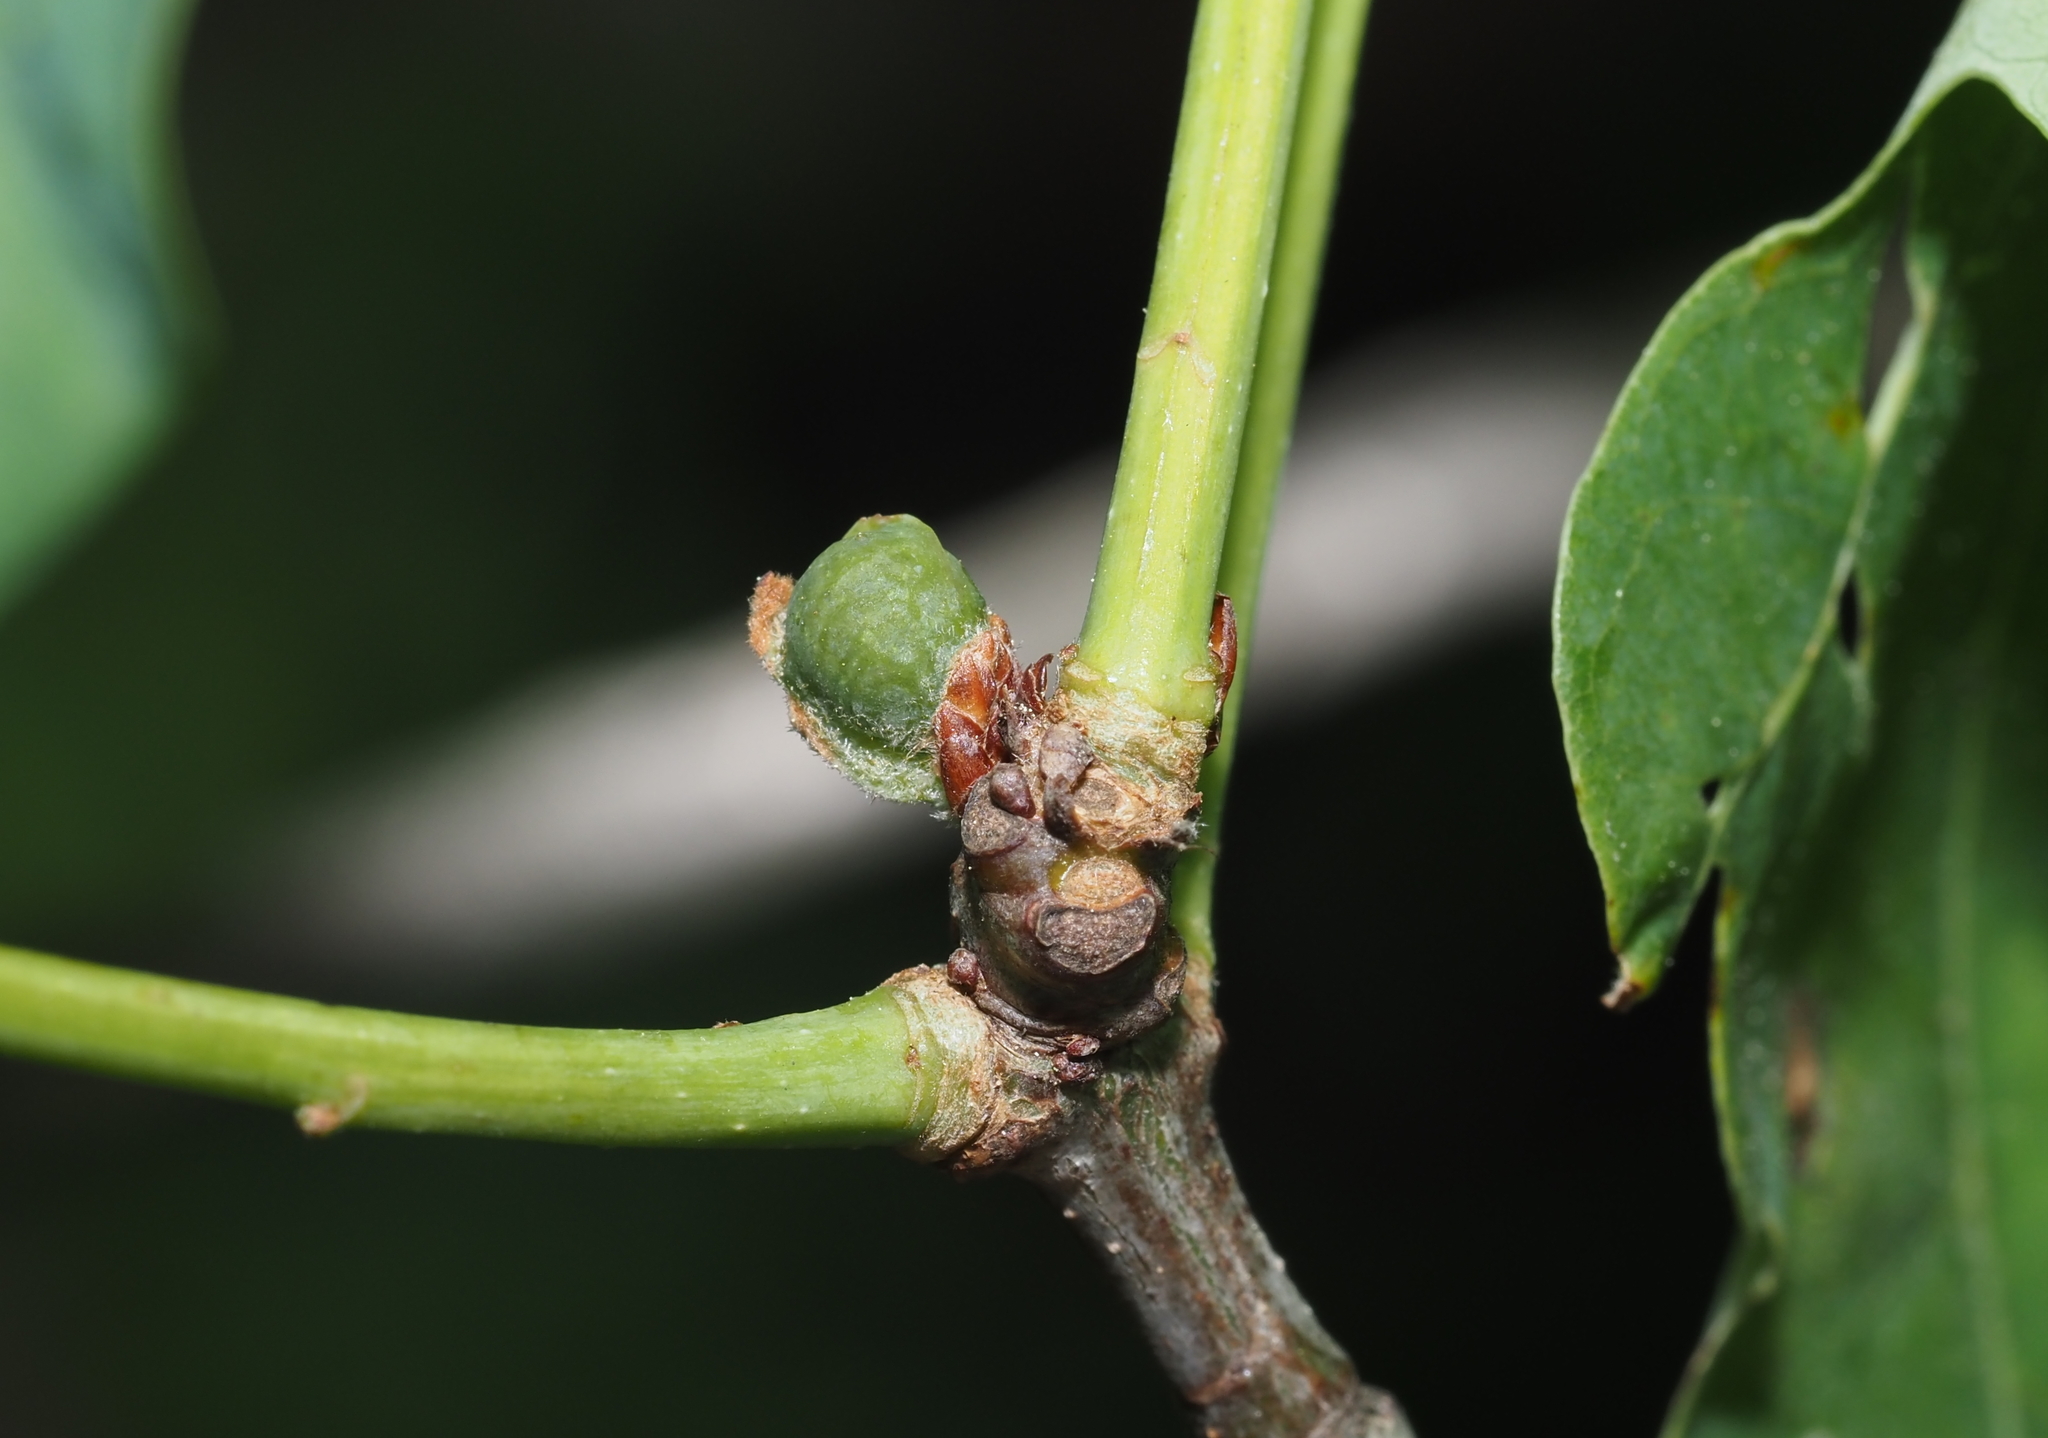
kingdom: Animalia
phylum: Arthropoda
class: Insecta
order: Hymenoptera
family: Cynipidae
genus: Andricus
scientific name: Andricus
